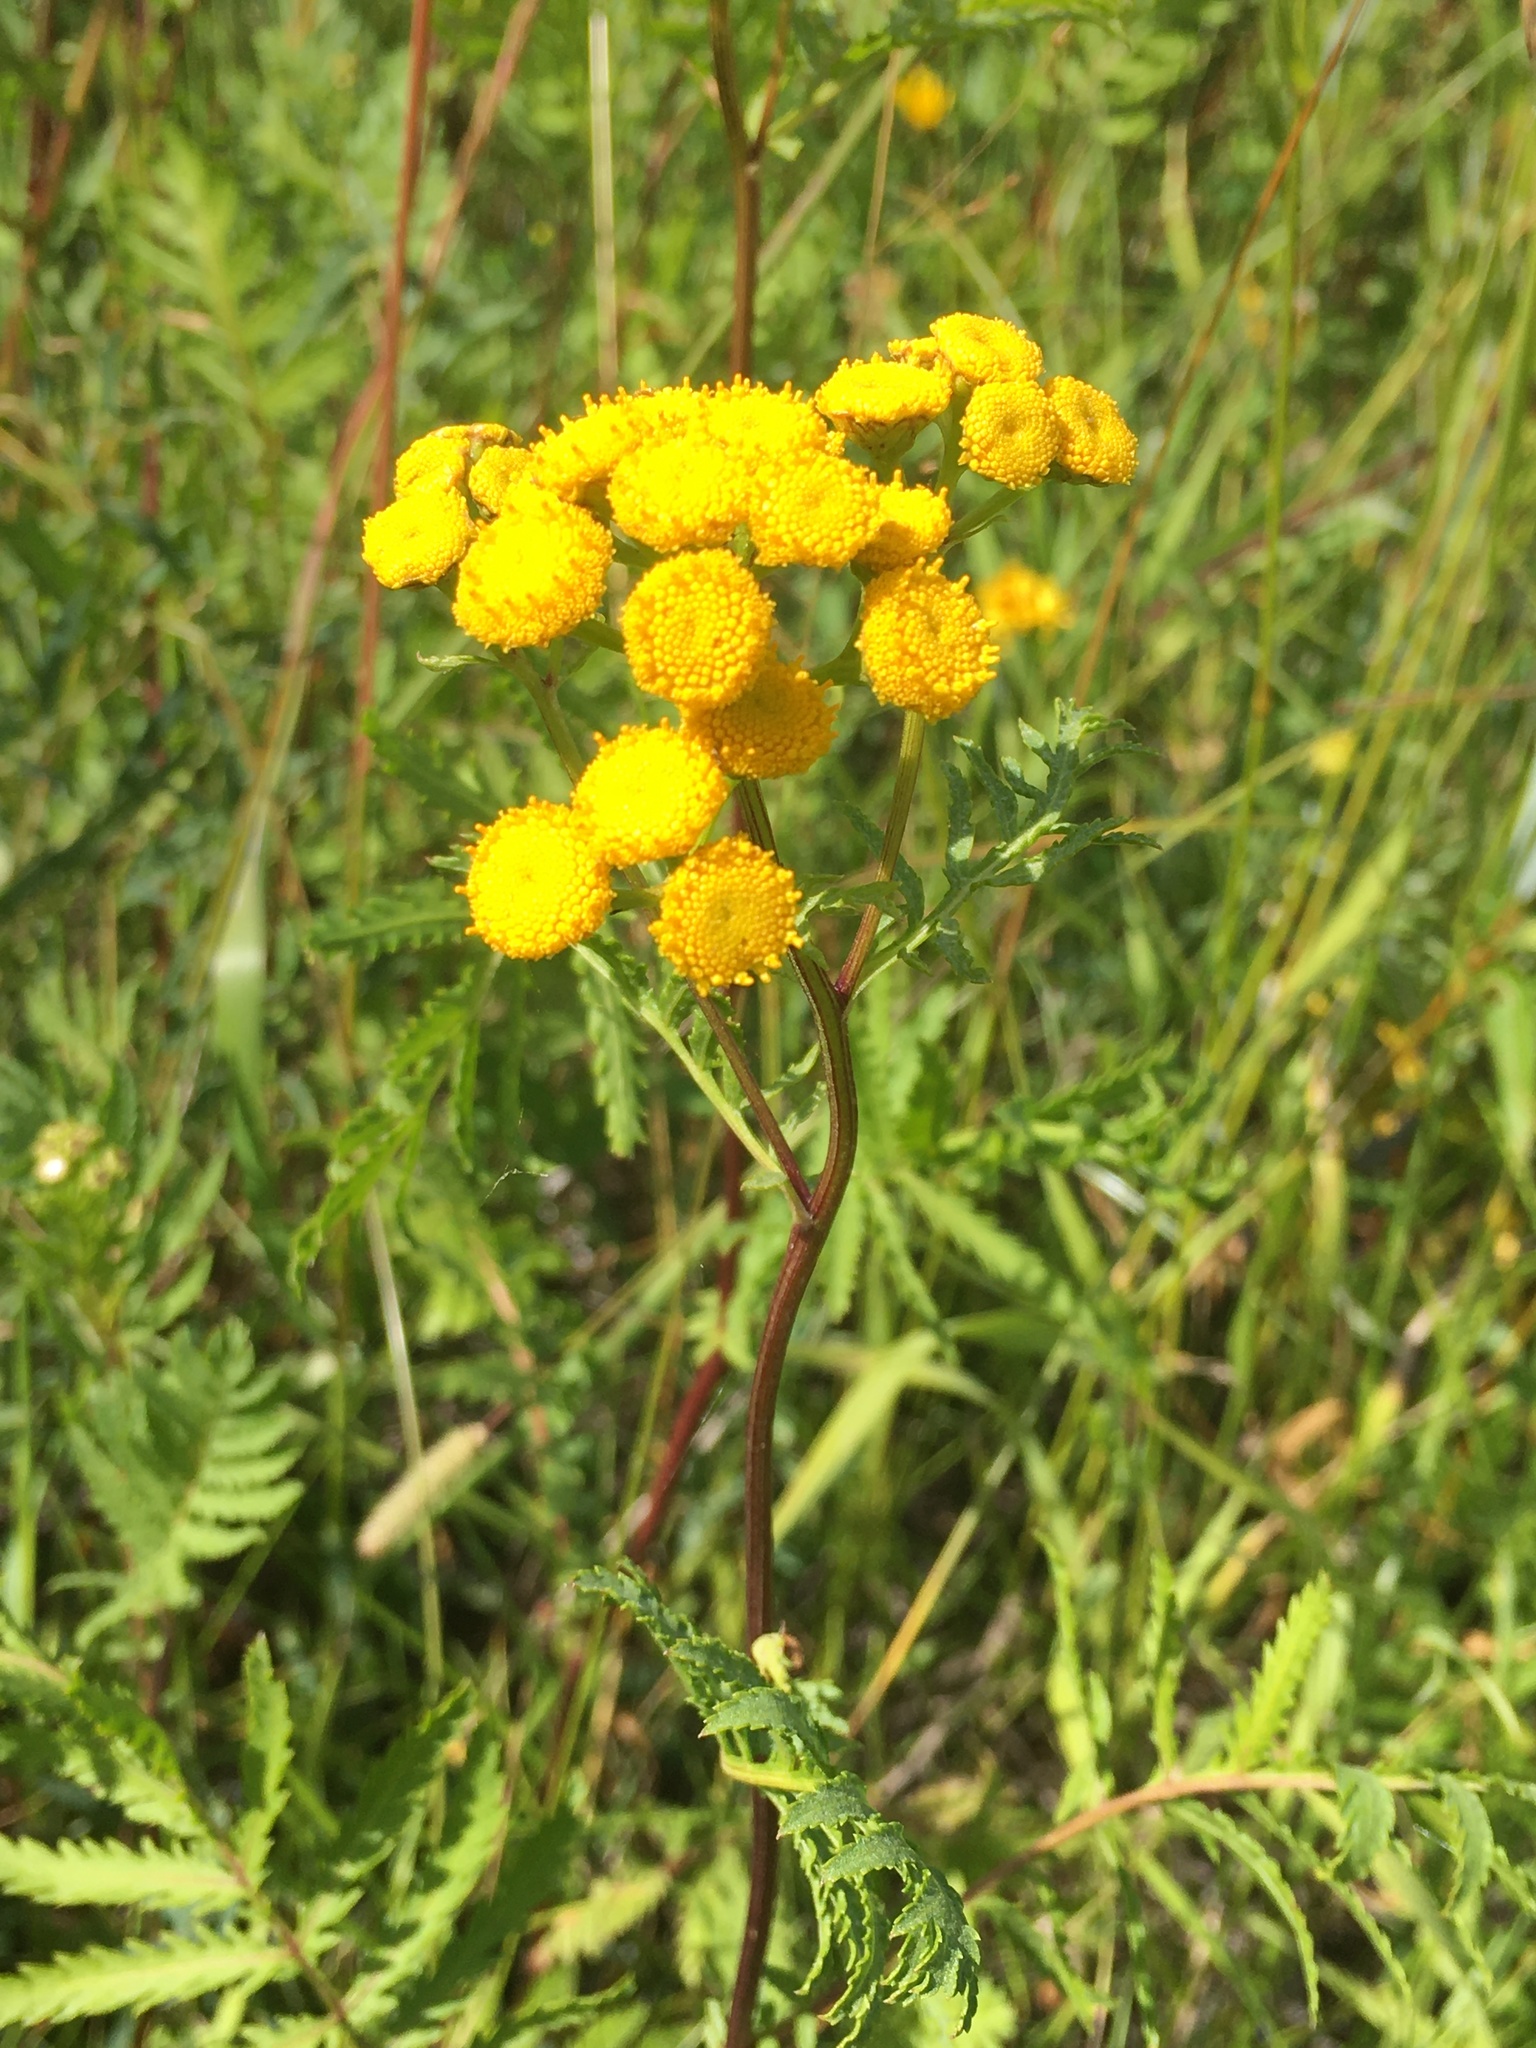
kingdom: Plantae
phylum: Tracheophyta
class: Magnoliopsida
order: Asterales
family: Asteraceae
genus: Tanacetum
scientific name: Tanacetum vulgare
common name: Common tansy
